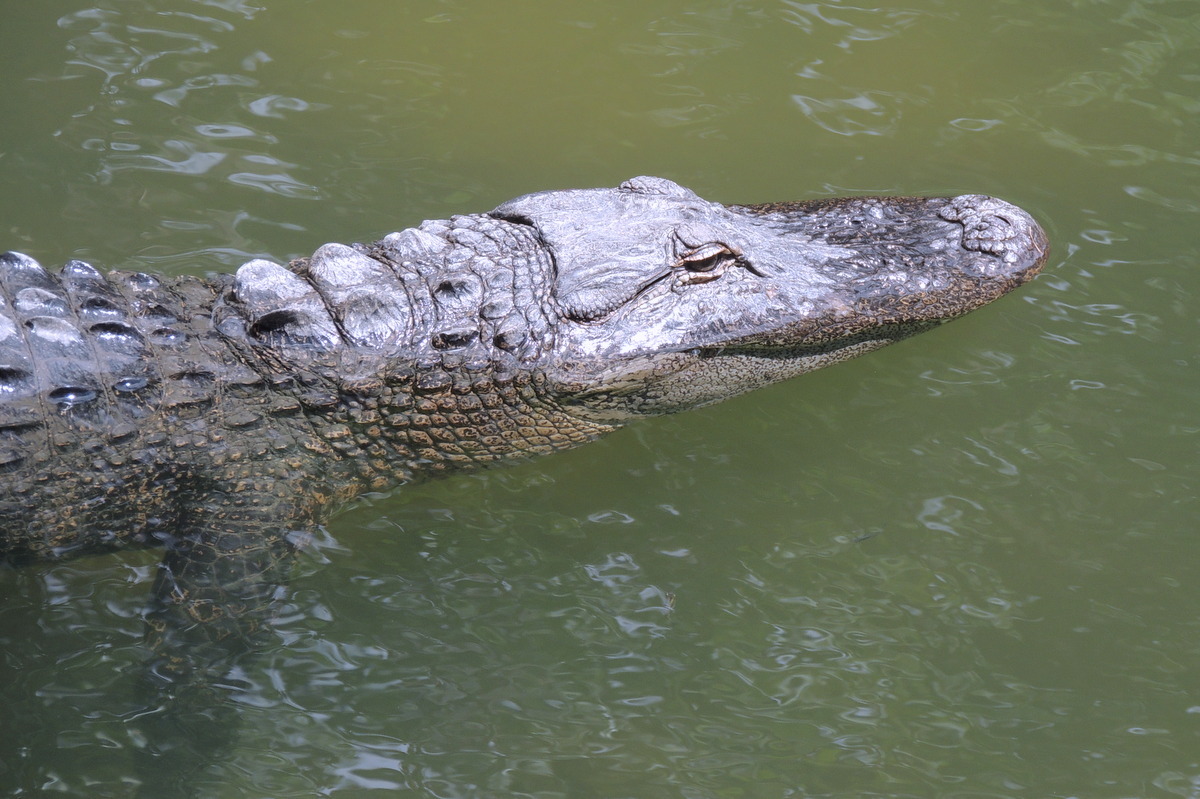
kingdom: Animalia
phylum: Chordata
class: Crocodylia
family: Alligatoridae
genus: Alligator
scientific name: Alligator mississippiensis
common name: American alligator
